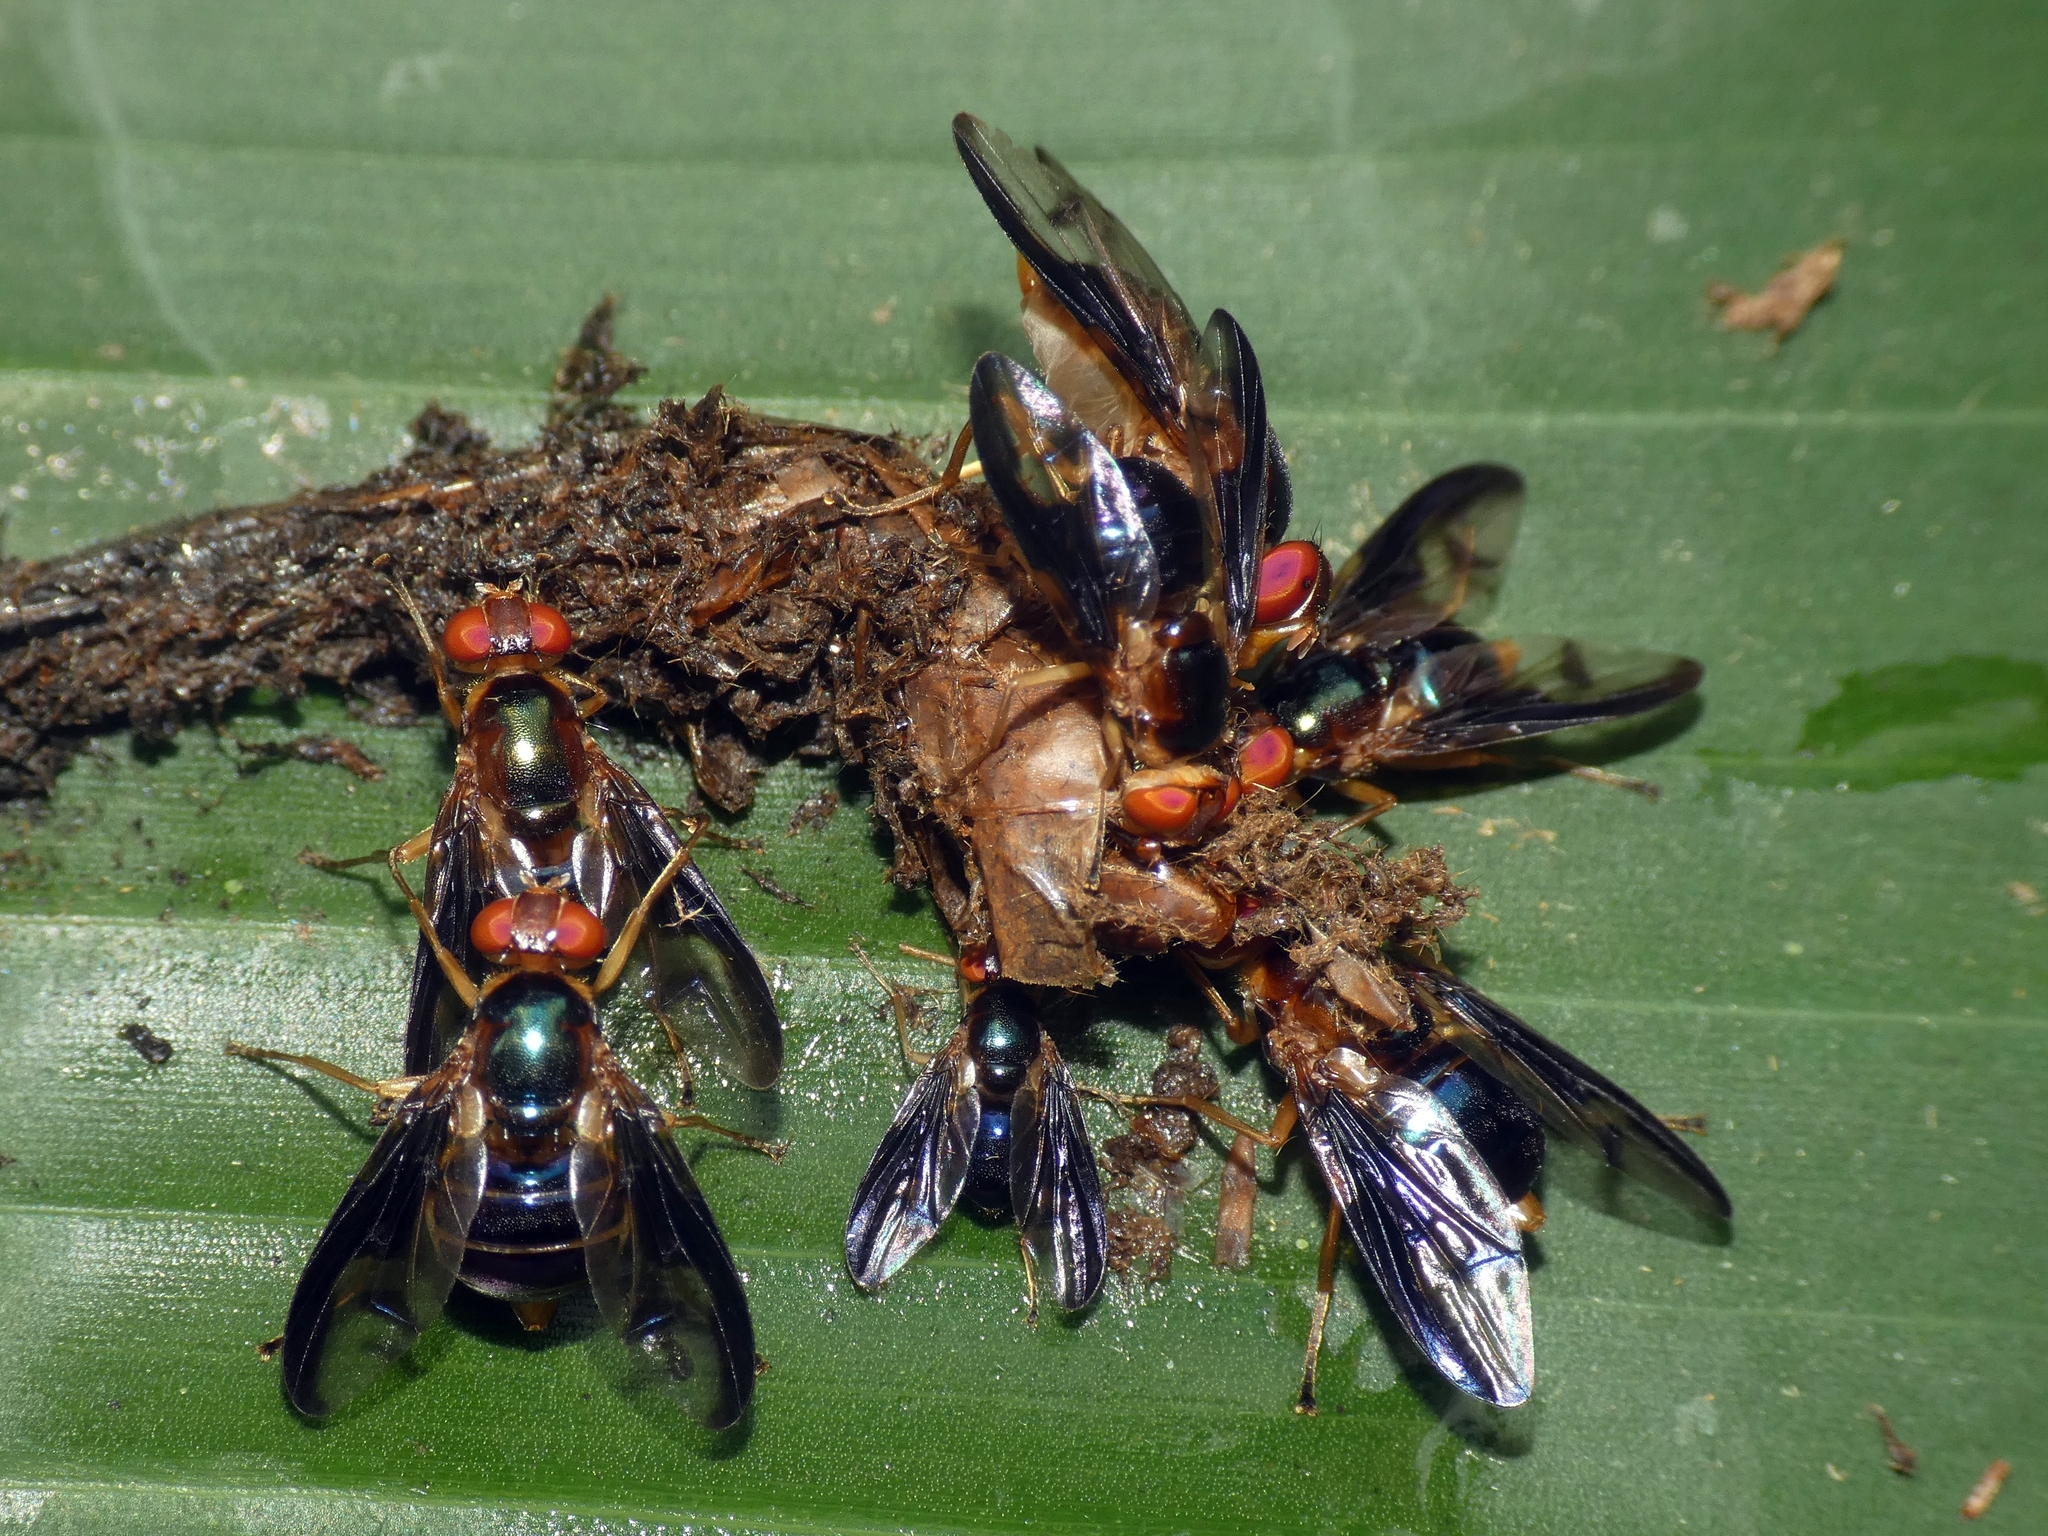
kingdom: Animalia
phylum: Arthropoda
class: Insecta
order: Diptera
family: Platystomatidae
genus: Lamprogaster
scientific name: Lamprogaster stenoparia
